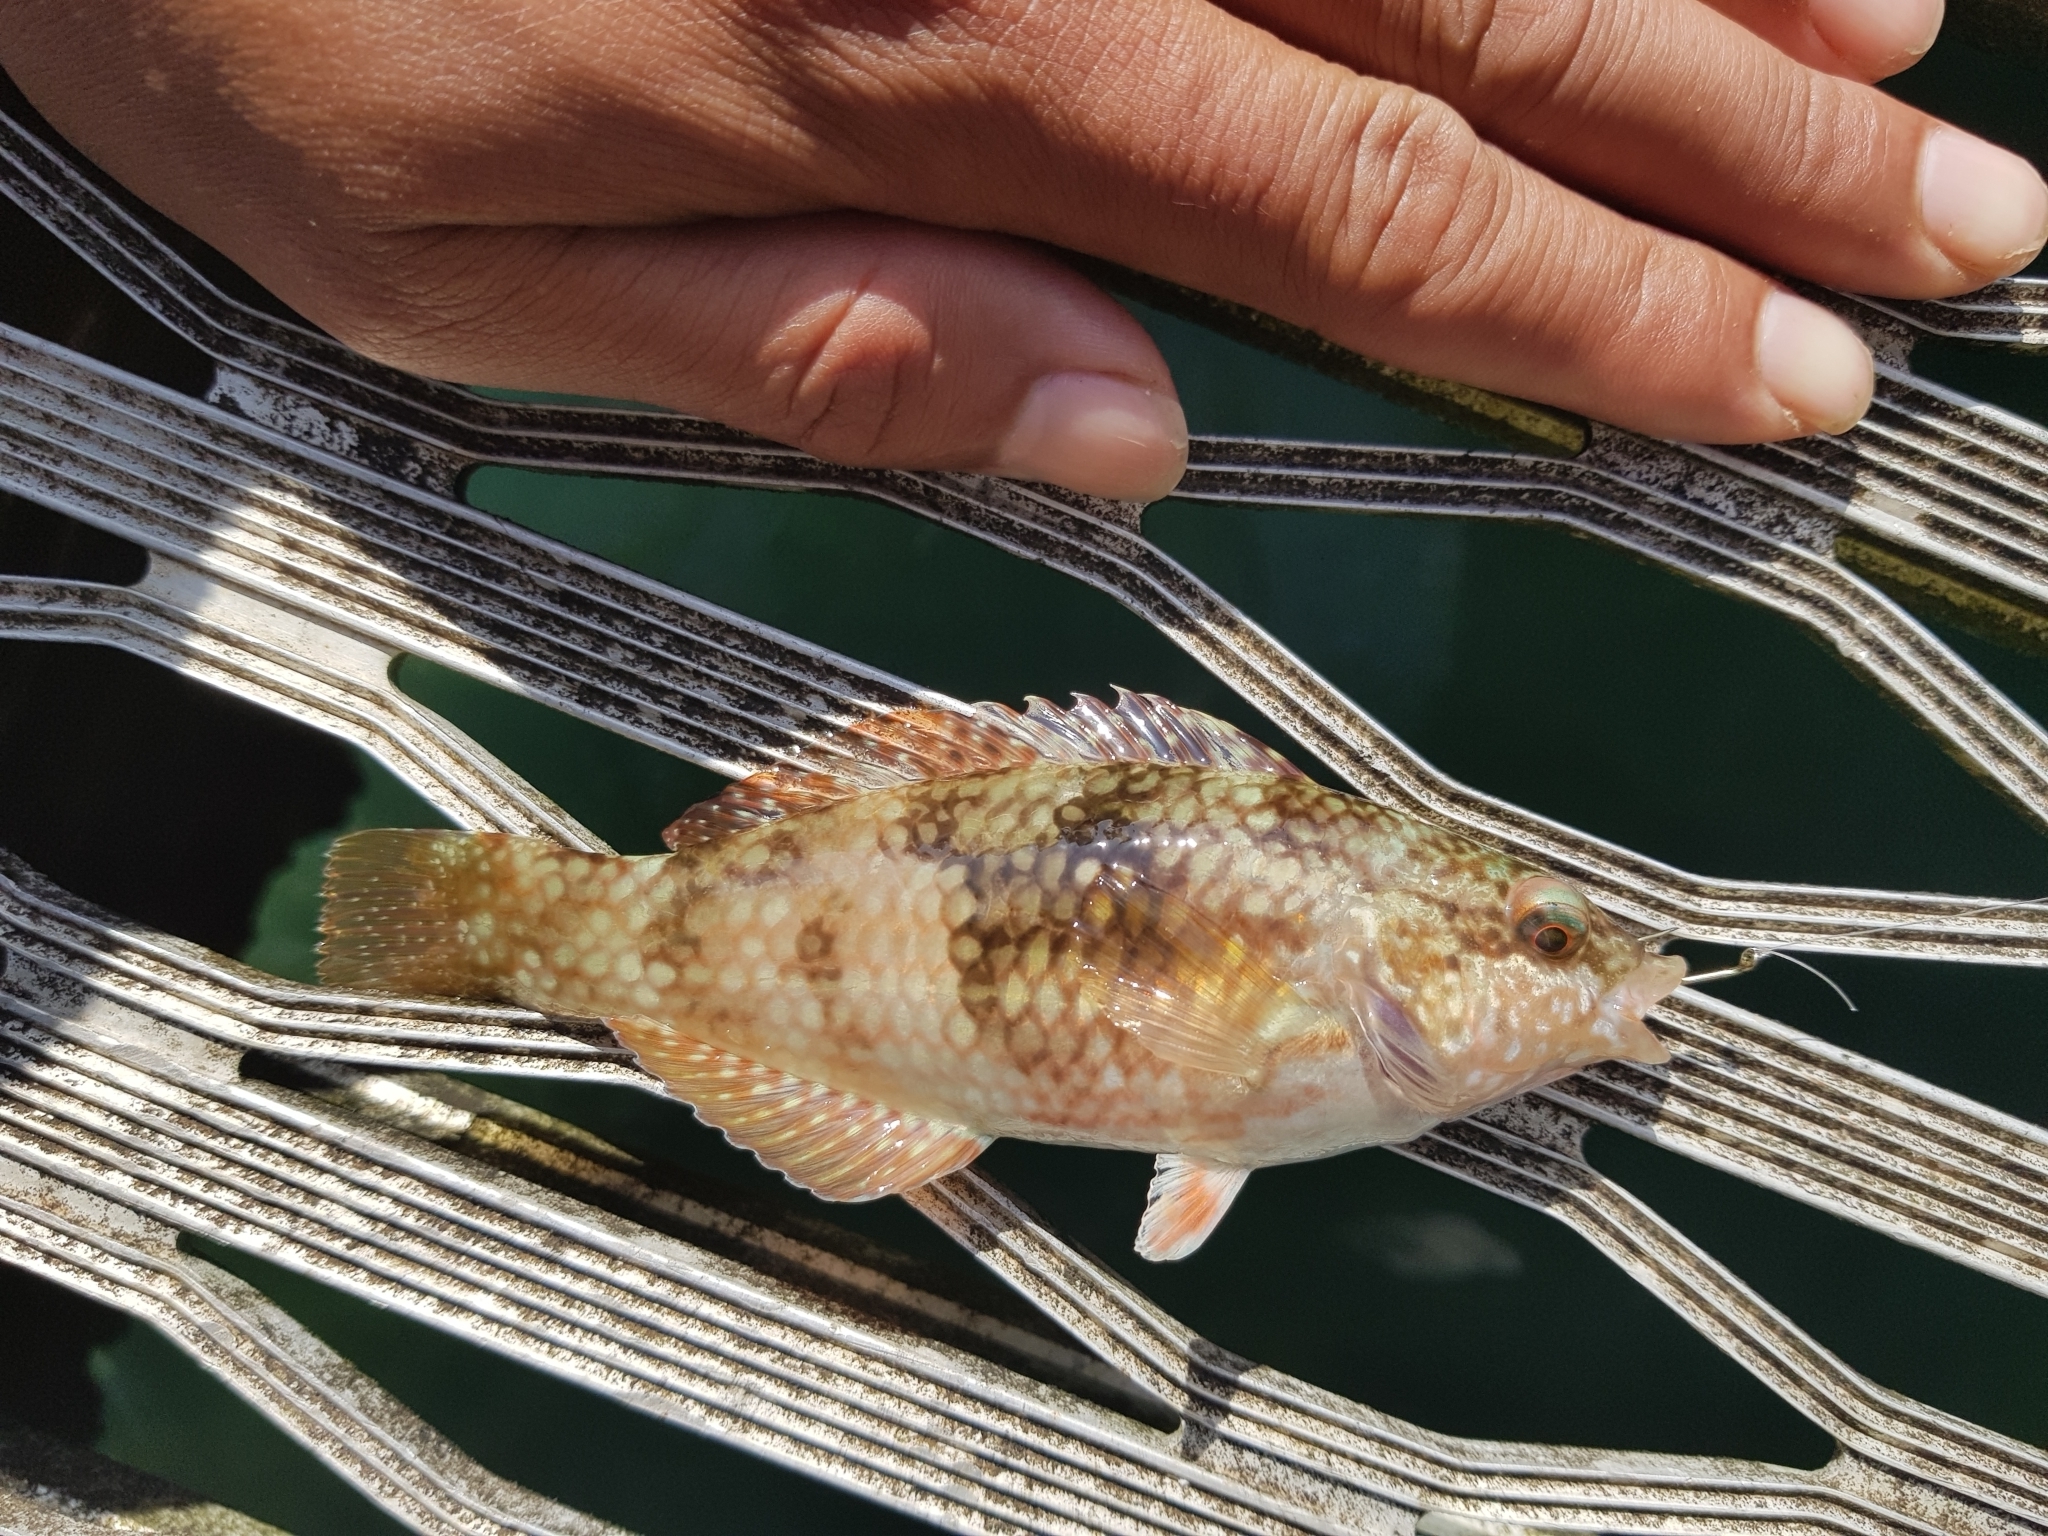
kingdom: Animalia
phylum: Chordata
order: Perciformes
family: Labridae
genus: Notolabrus
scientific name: Notolabrus tetricus
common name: Blue-throated parrotfish
